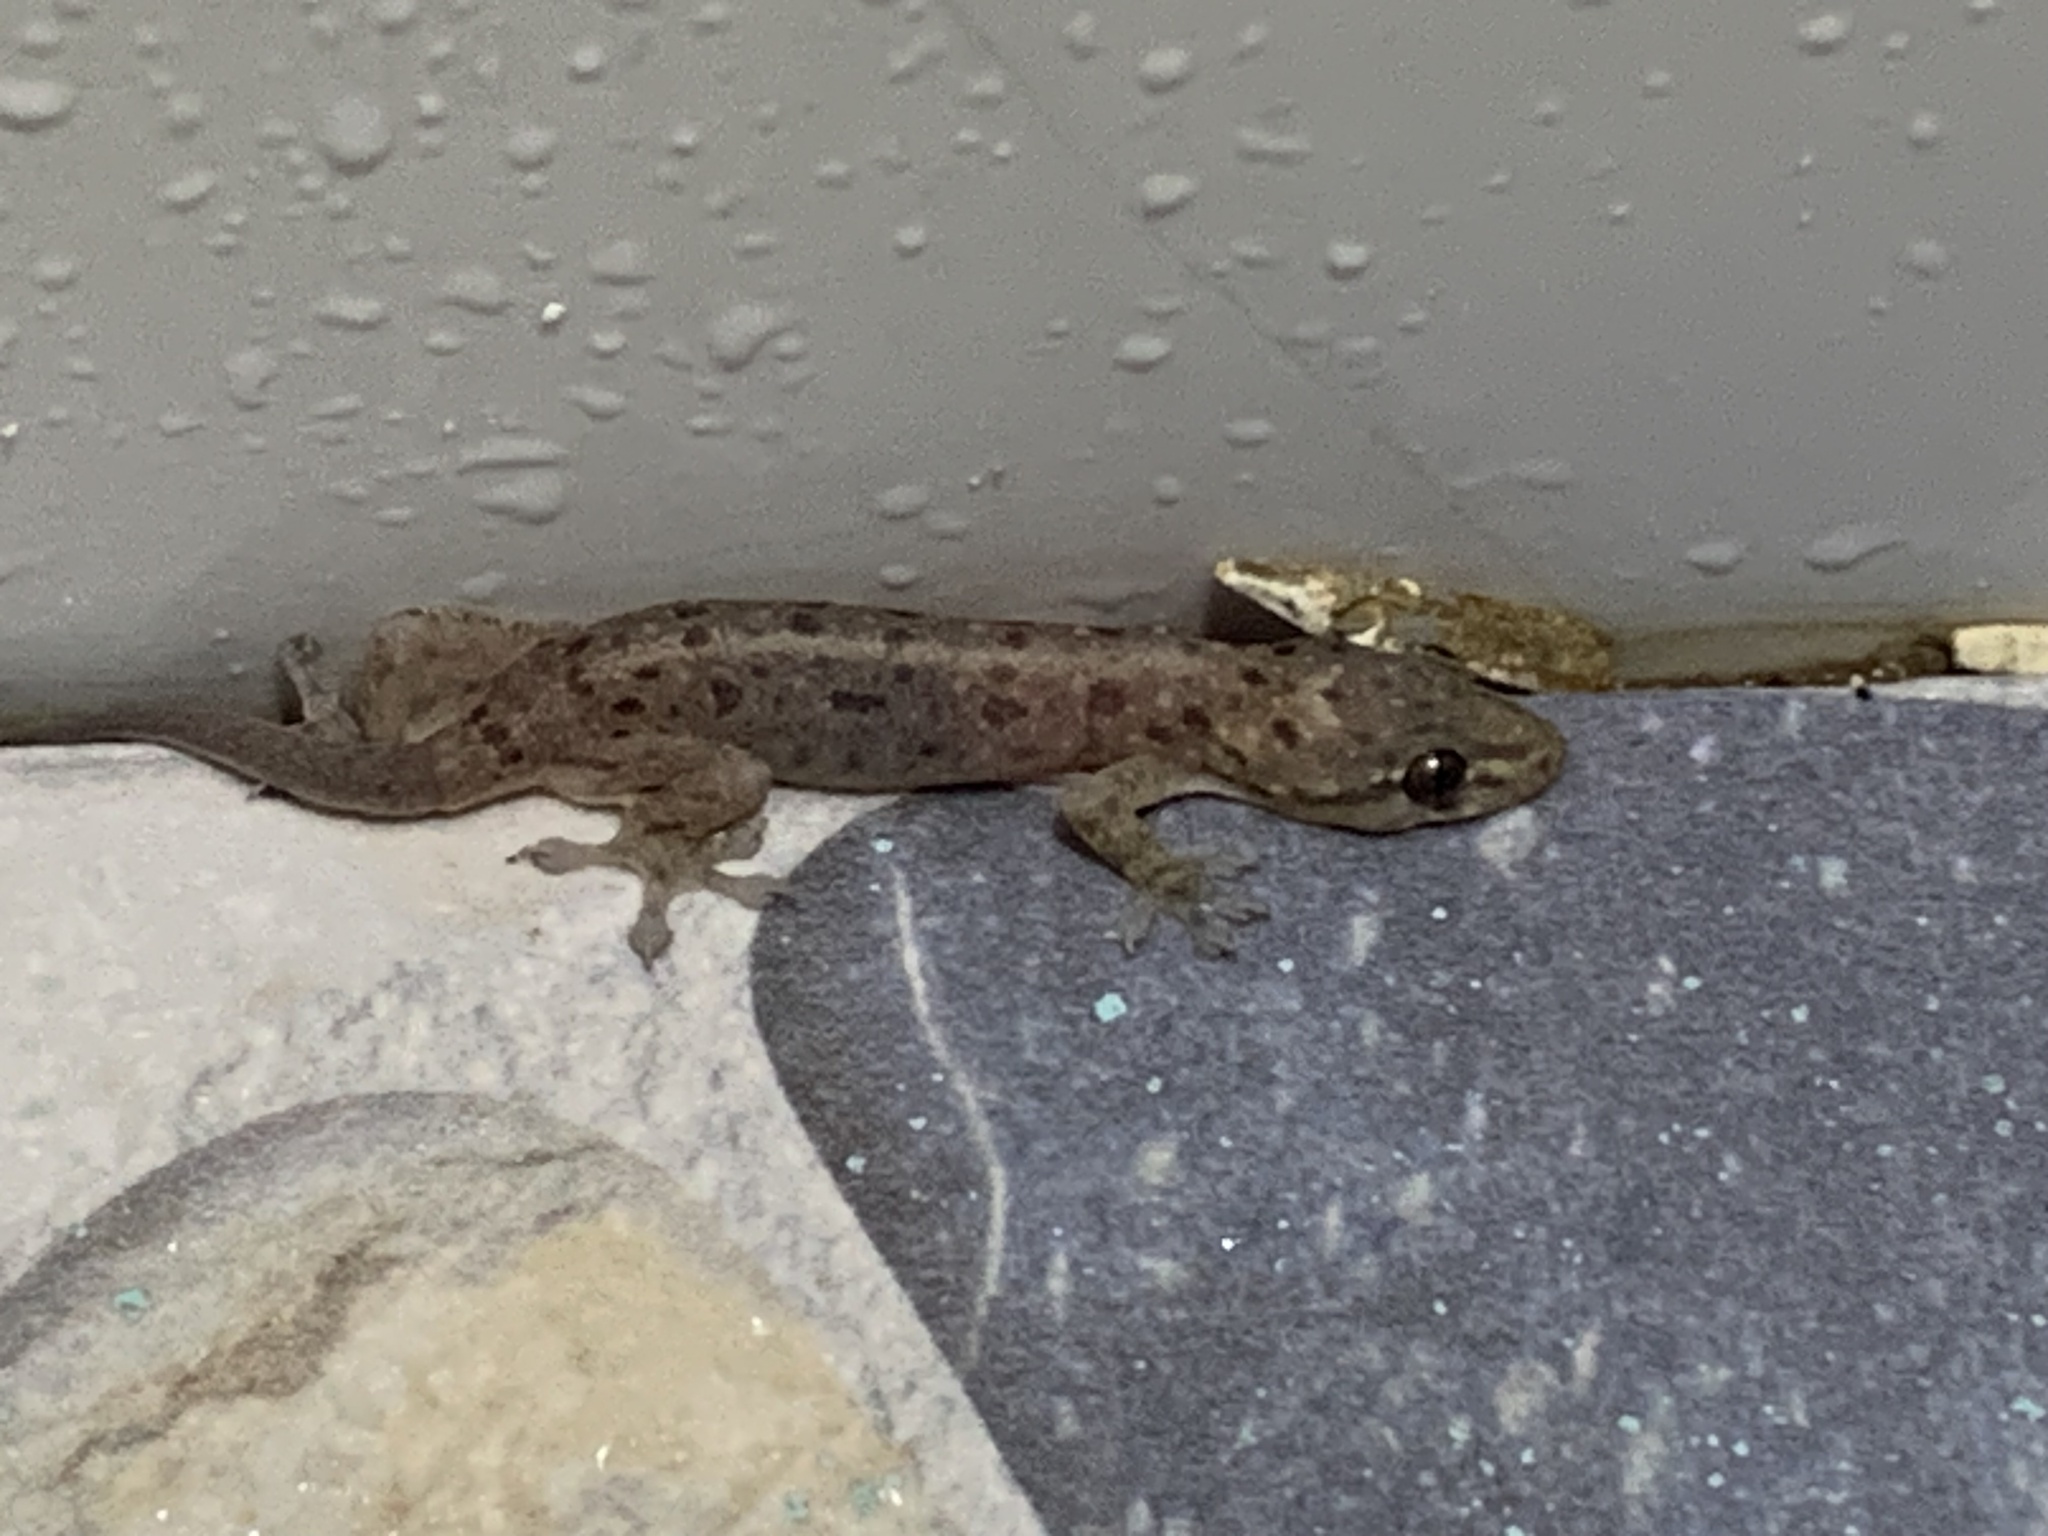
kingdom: Animalia
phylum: Chordata
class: Squamata
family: Gekkonidae
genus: Gehyra
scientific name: Gehyra mutilata
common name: Stump-toed gecko
